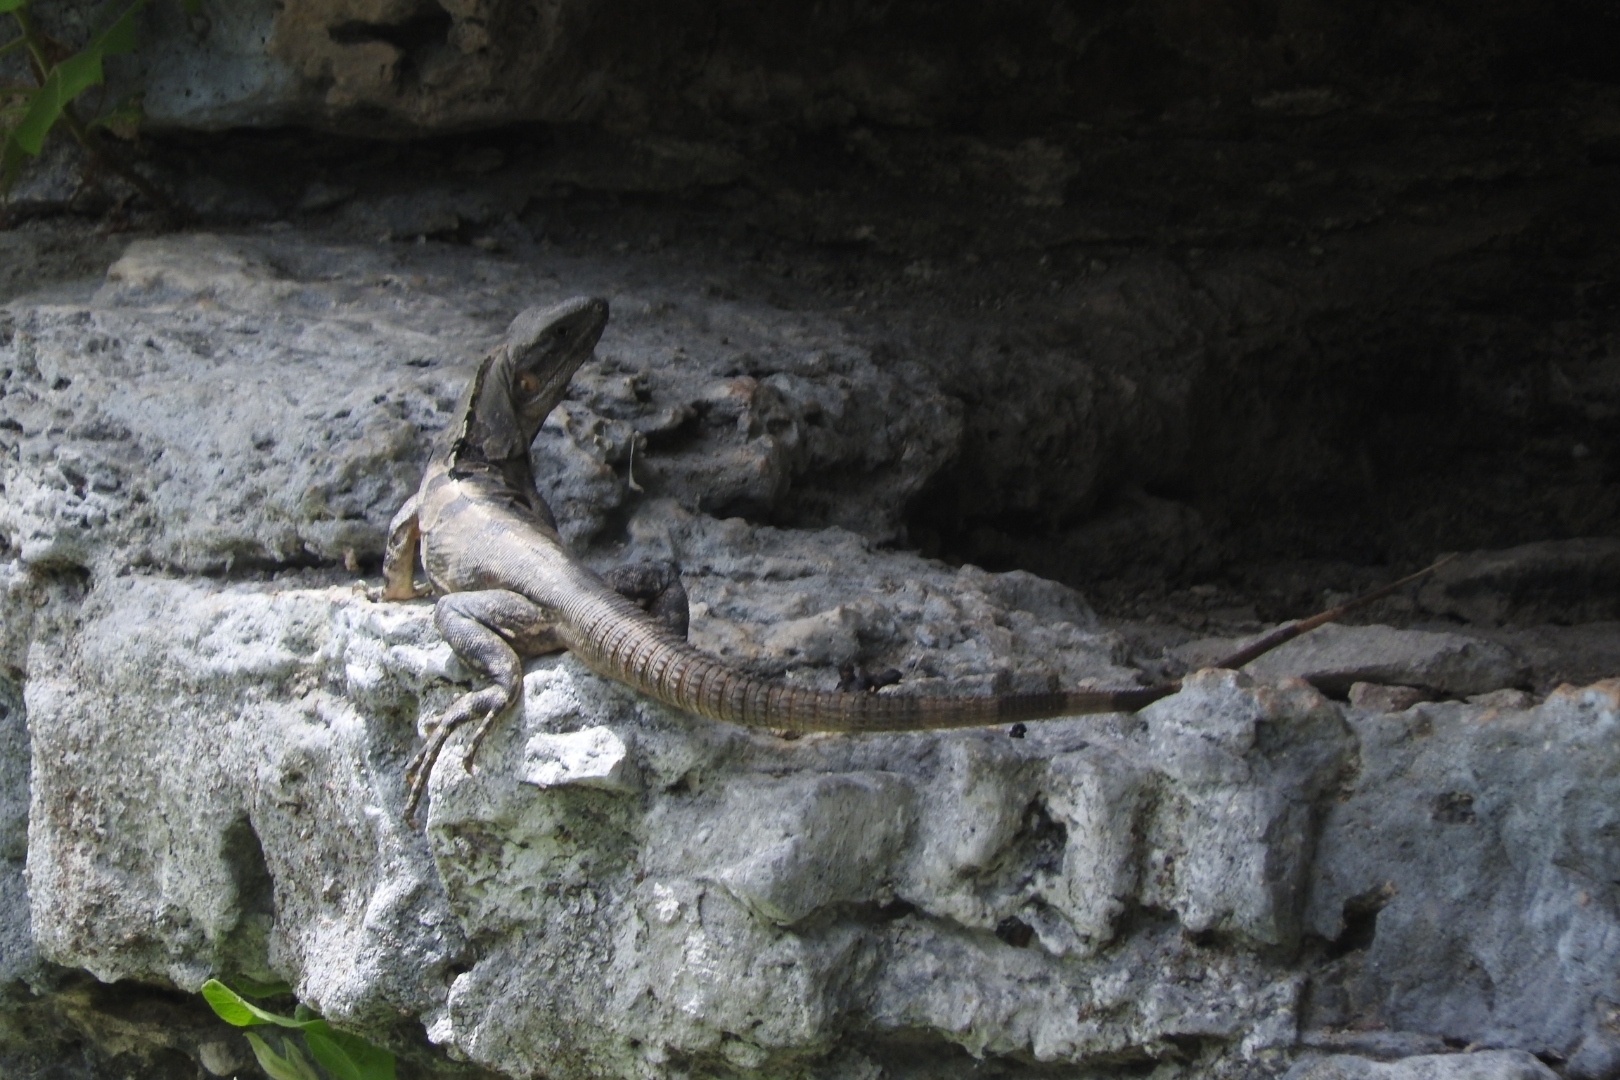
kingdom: Animalia
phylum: Chordata
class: Squamata
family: Iguanidae
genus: Ctenosaura
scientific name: Ctenosaura similis
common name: Black spiny-tailed iguana
